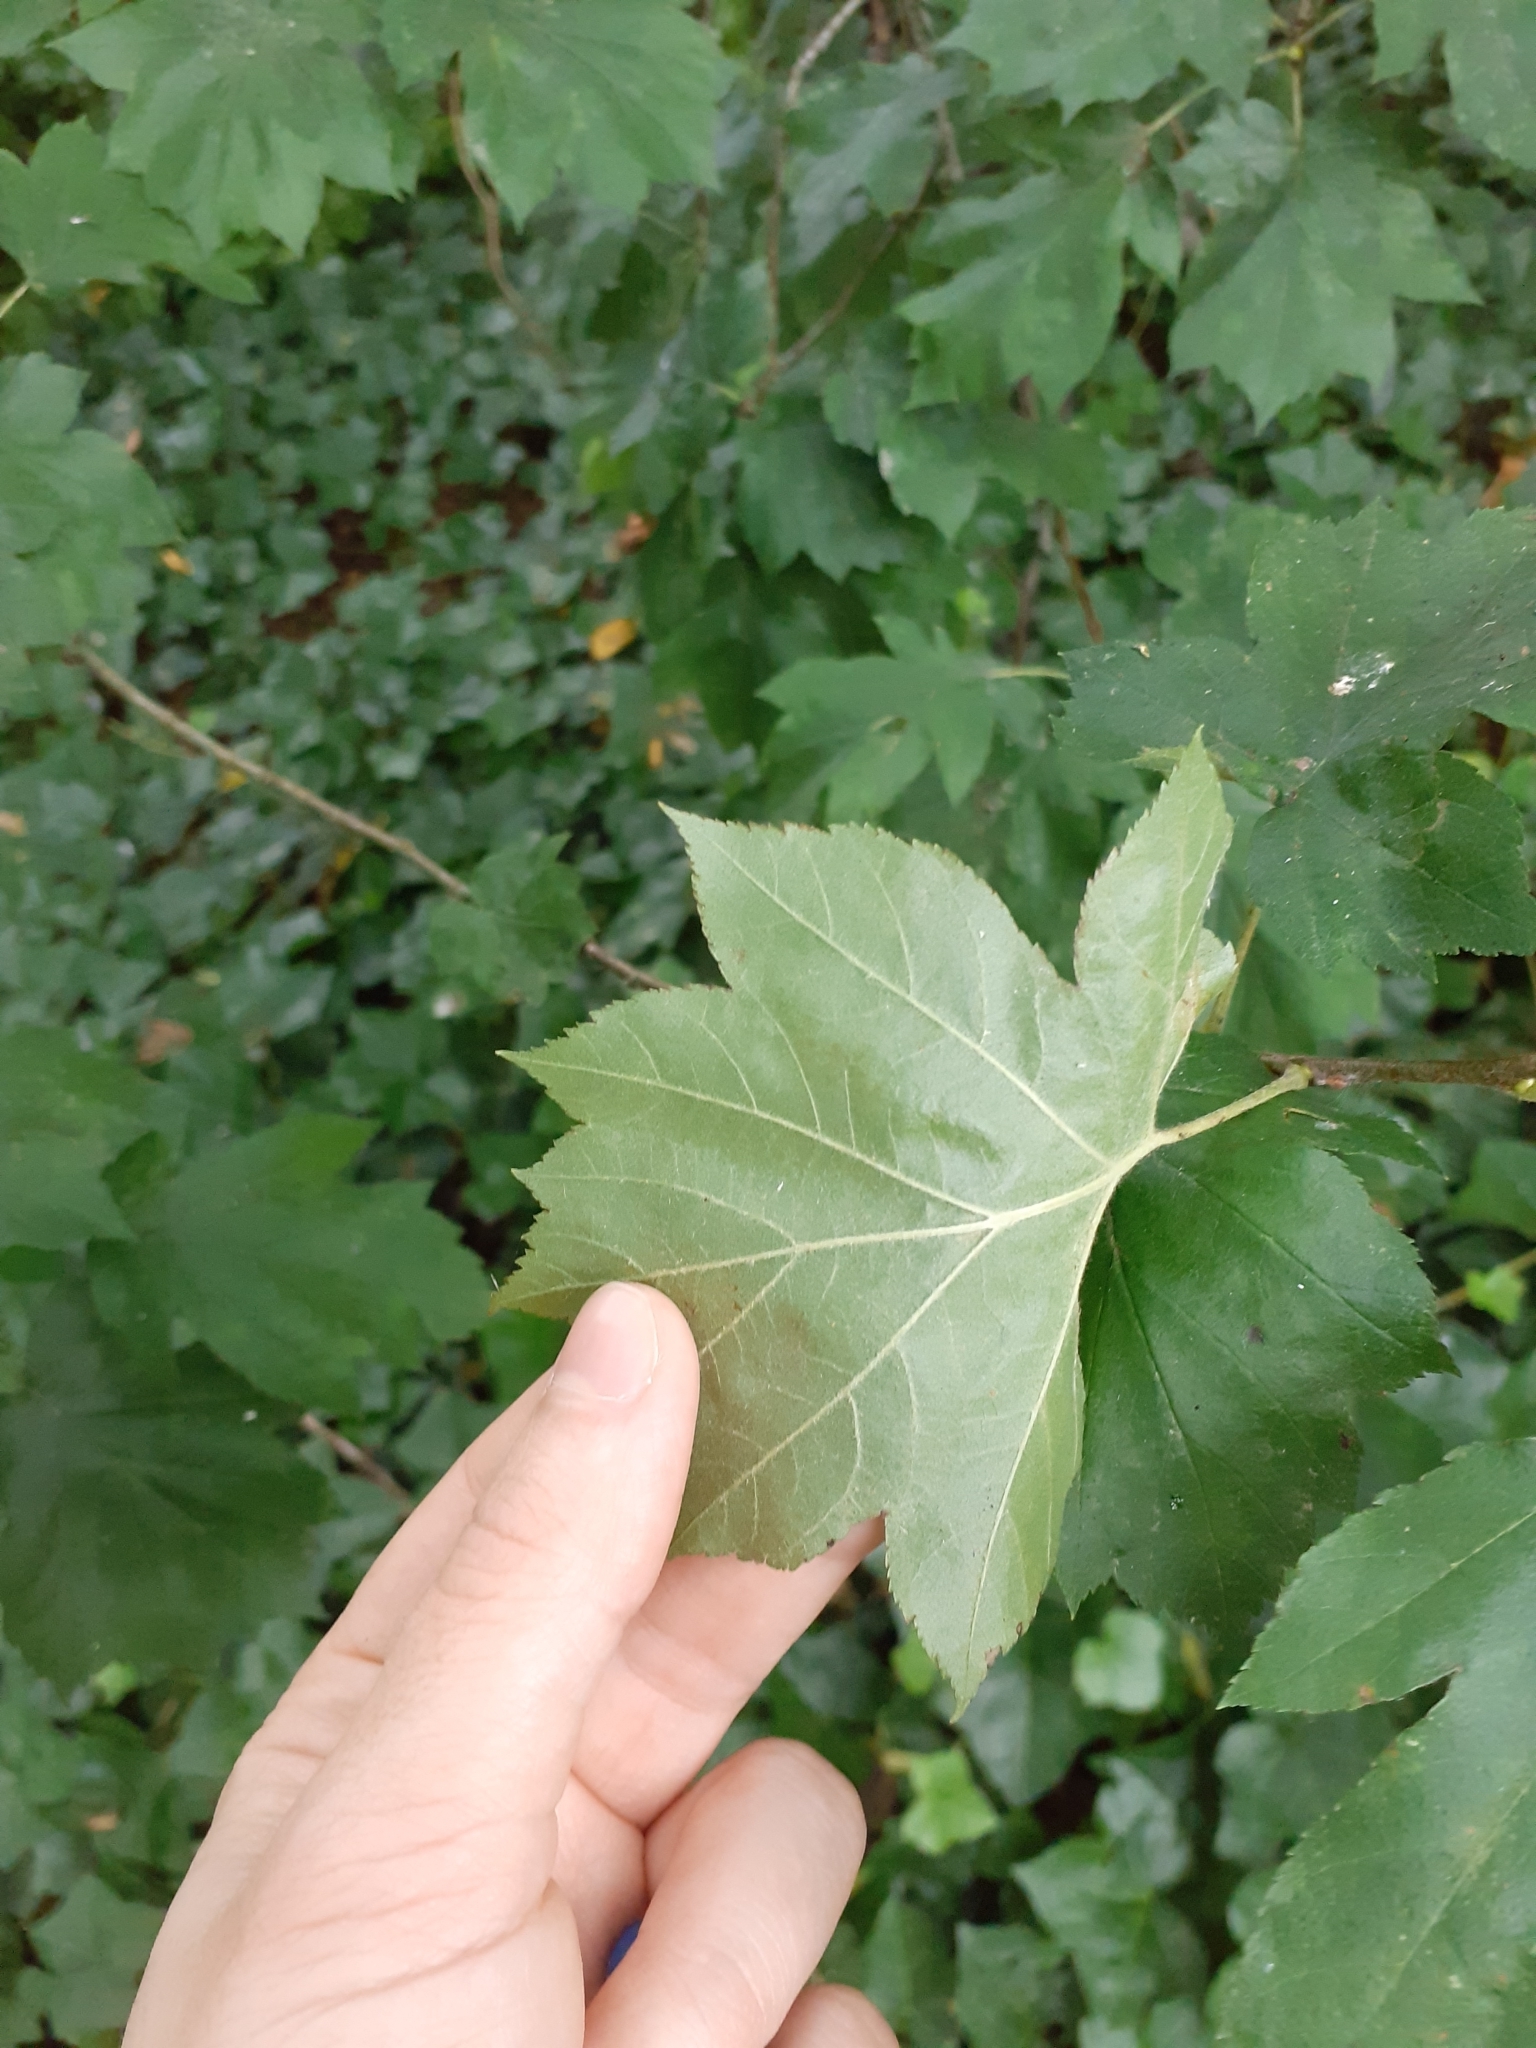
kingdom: Plantae
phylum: Tracheophyta
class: Magnoliopsida
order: Rosales
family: Rosaceae
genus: Torminalis
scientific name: Torminalis glaberrima
